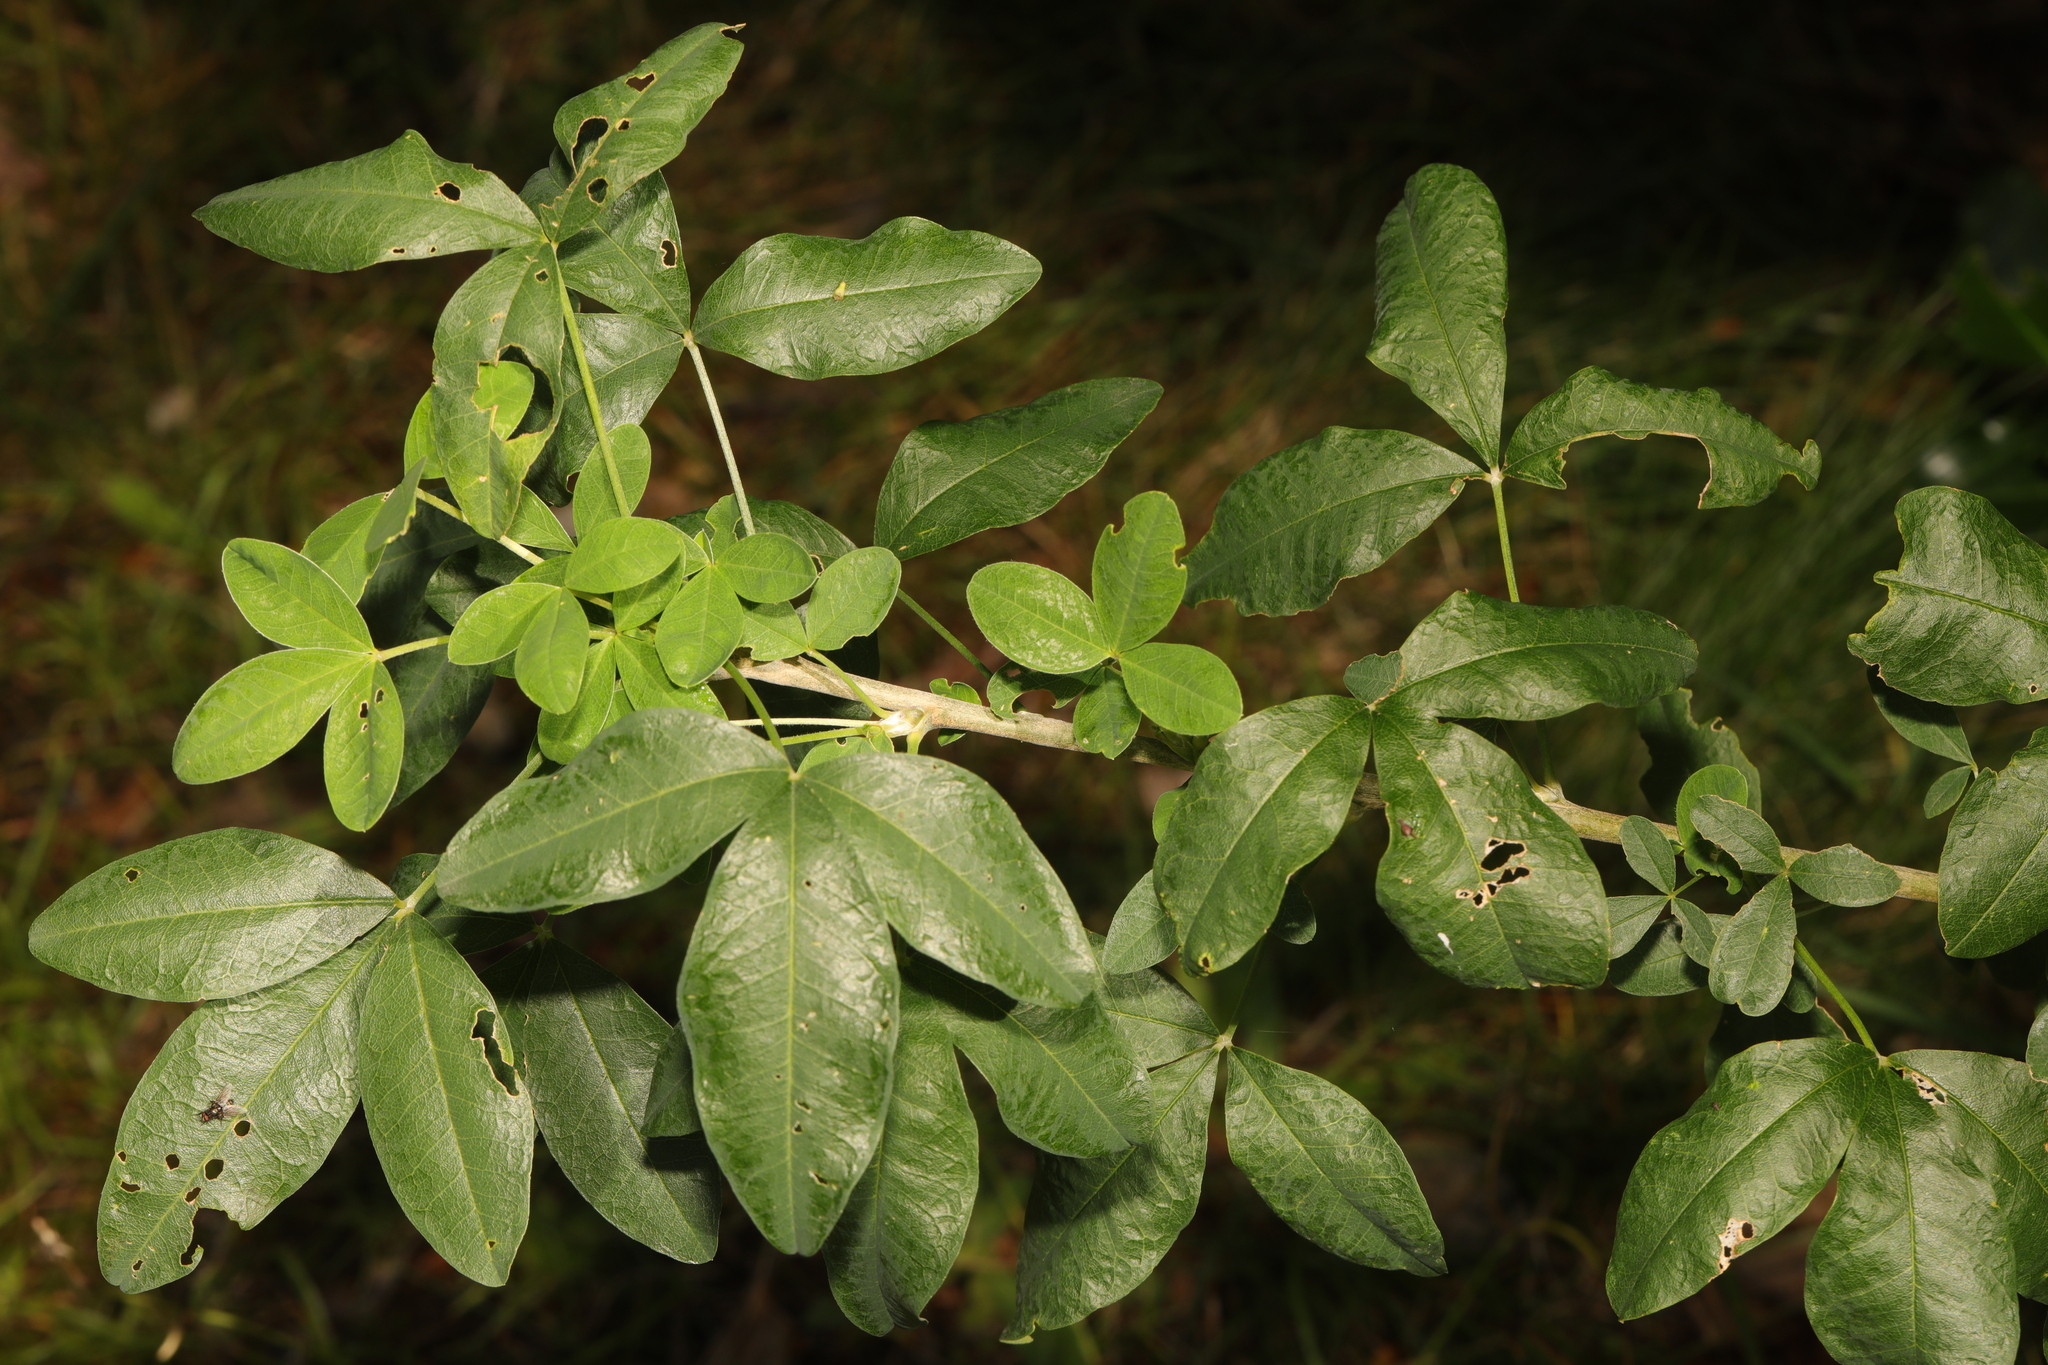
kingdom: Plantae
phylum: Tracheophyta
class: Magnoliopsida
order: Fabales
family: Fabaceae
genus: Laburnum
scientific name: Laburnum anagyroides
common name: Laburnum
